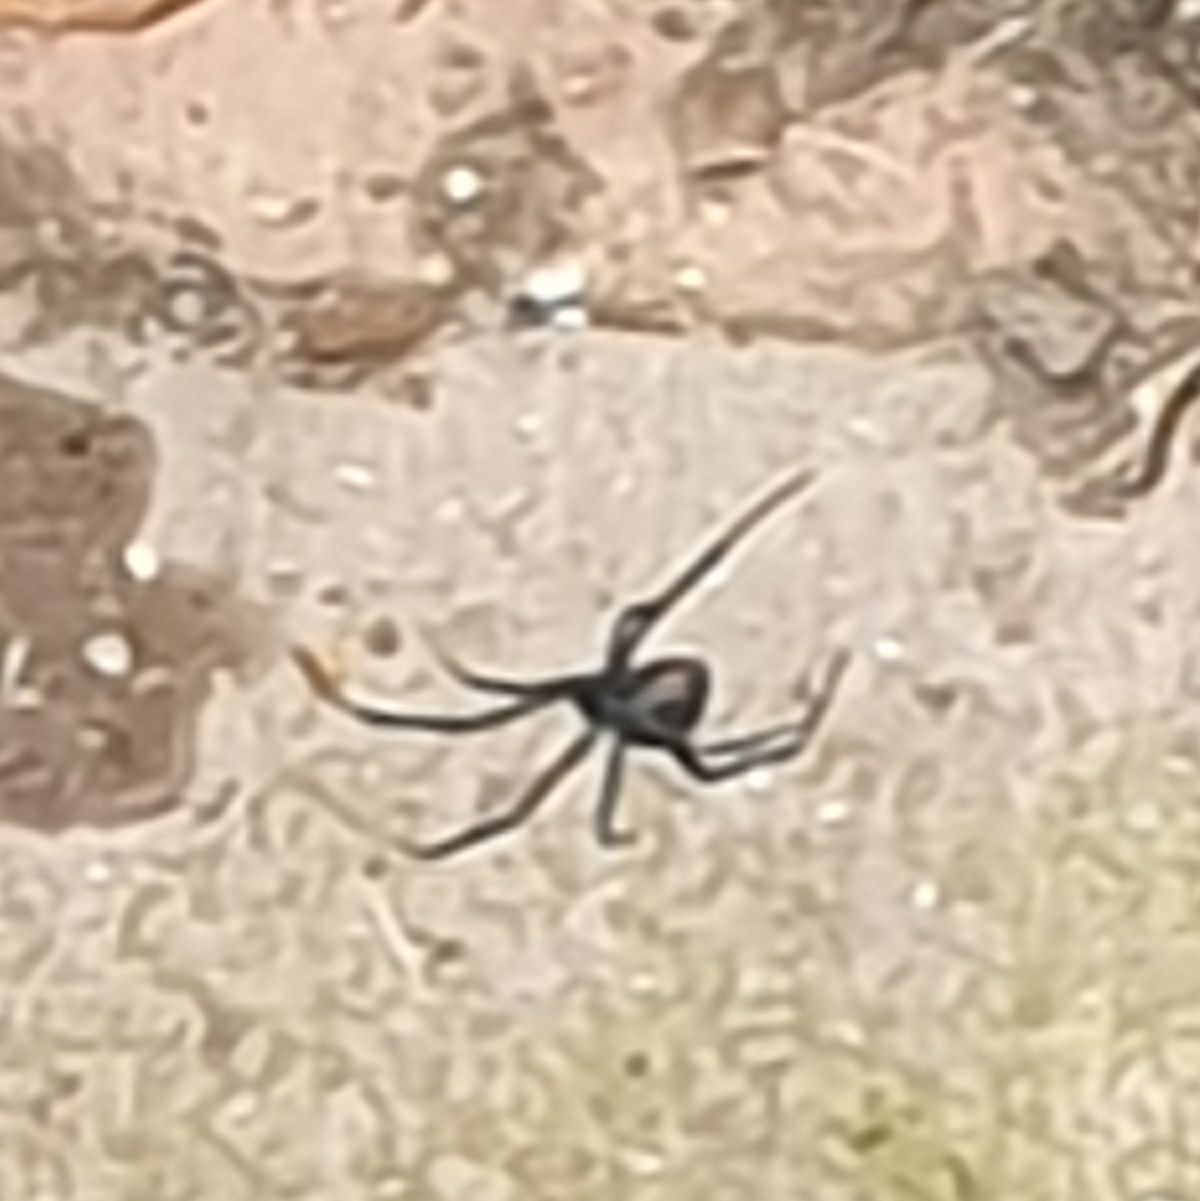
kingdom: Animalia
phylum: Arthropoda
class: Arachnida
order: Araneae
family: Theridiidae
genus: Latrodectus
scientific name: Latrodectus hasselti
